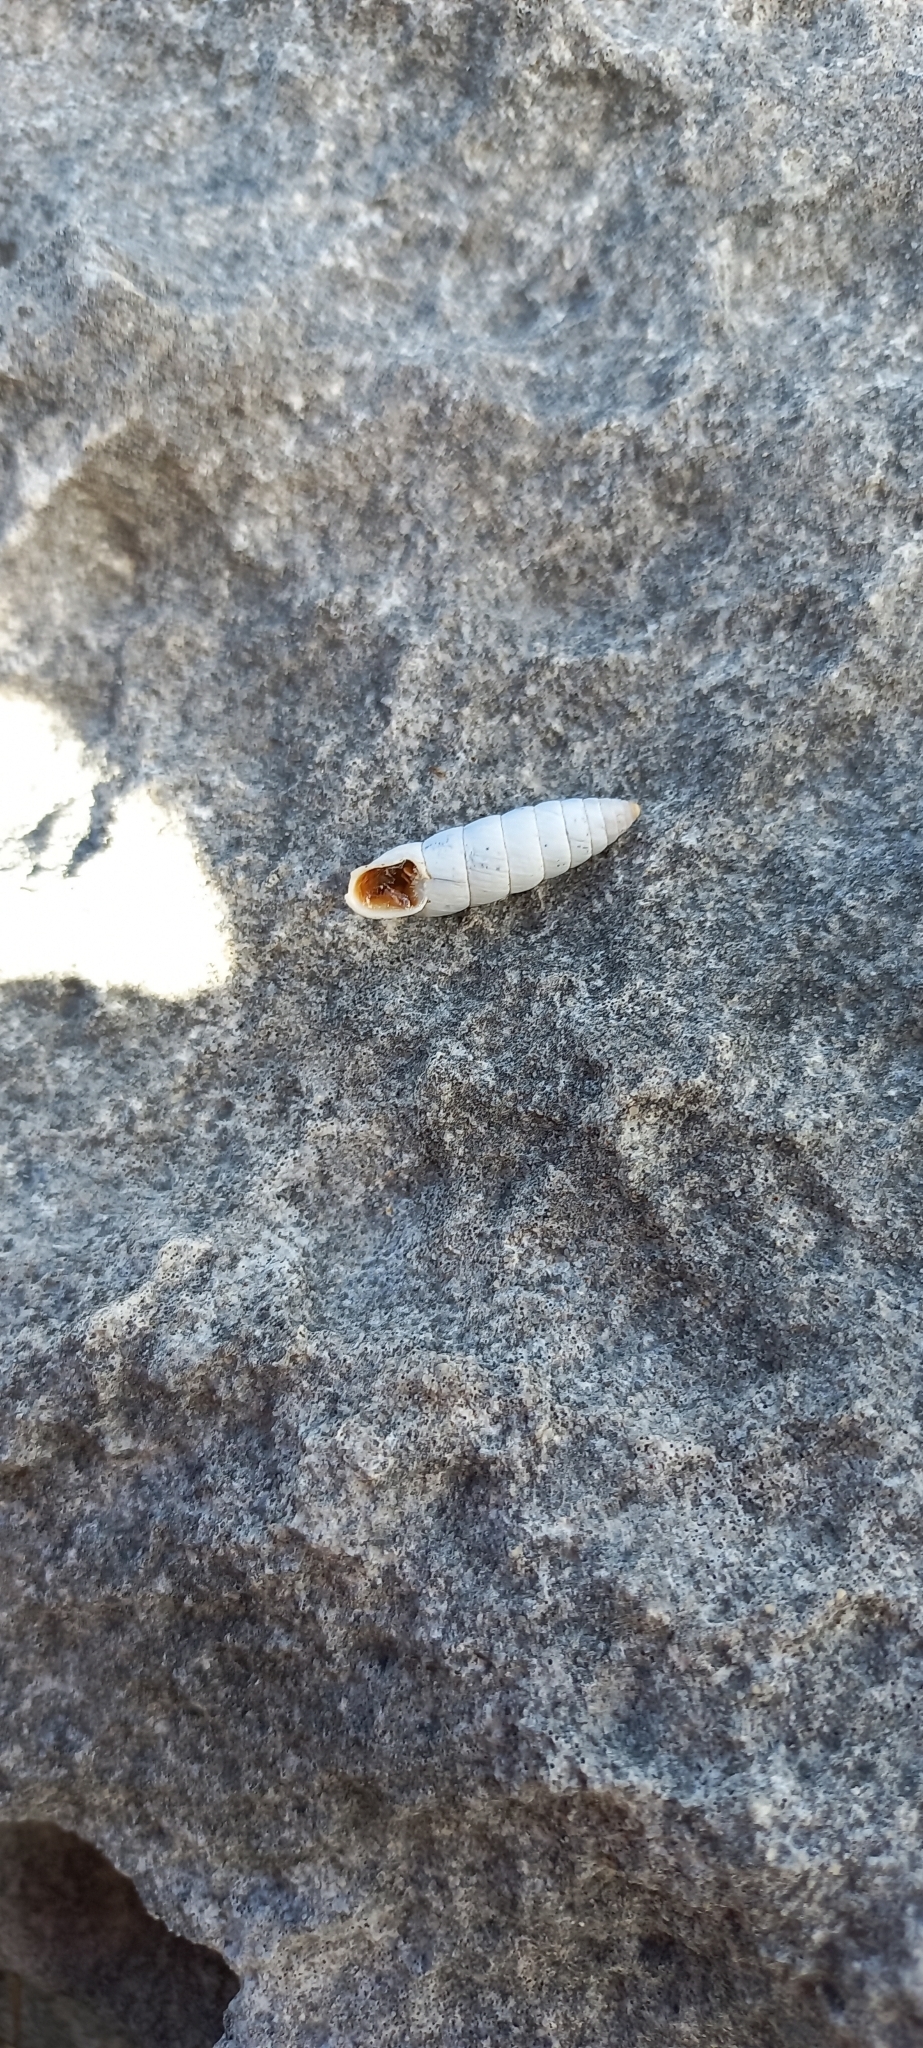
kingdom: Animalia
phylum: Mollusca
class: Gastropoda
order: Stylommatophora
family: Fauxulidae
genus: Fauxulus
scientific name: Fauxulus capensis
